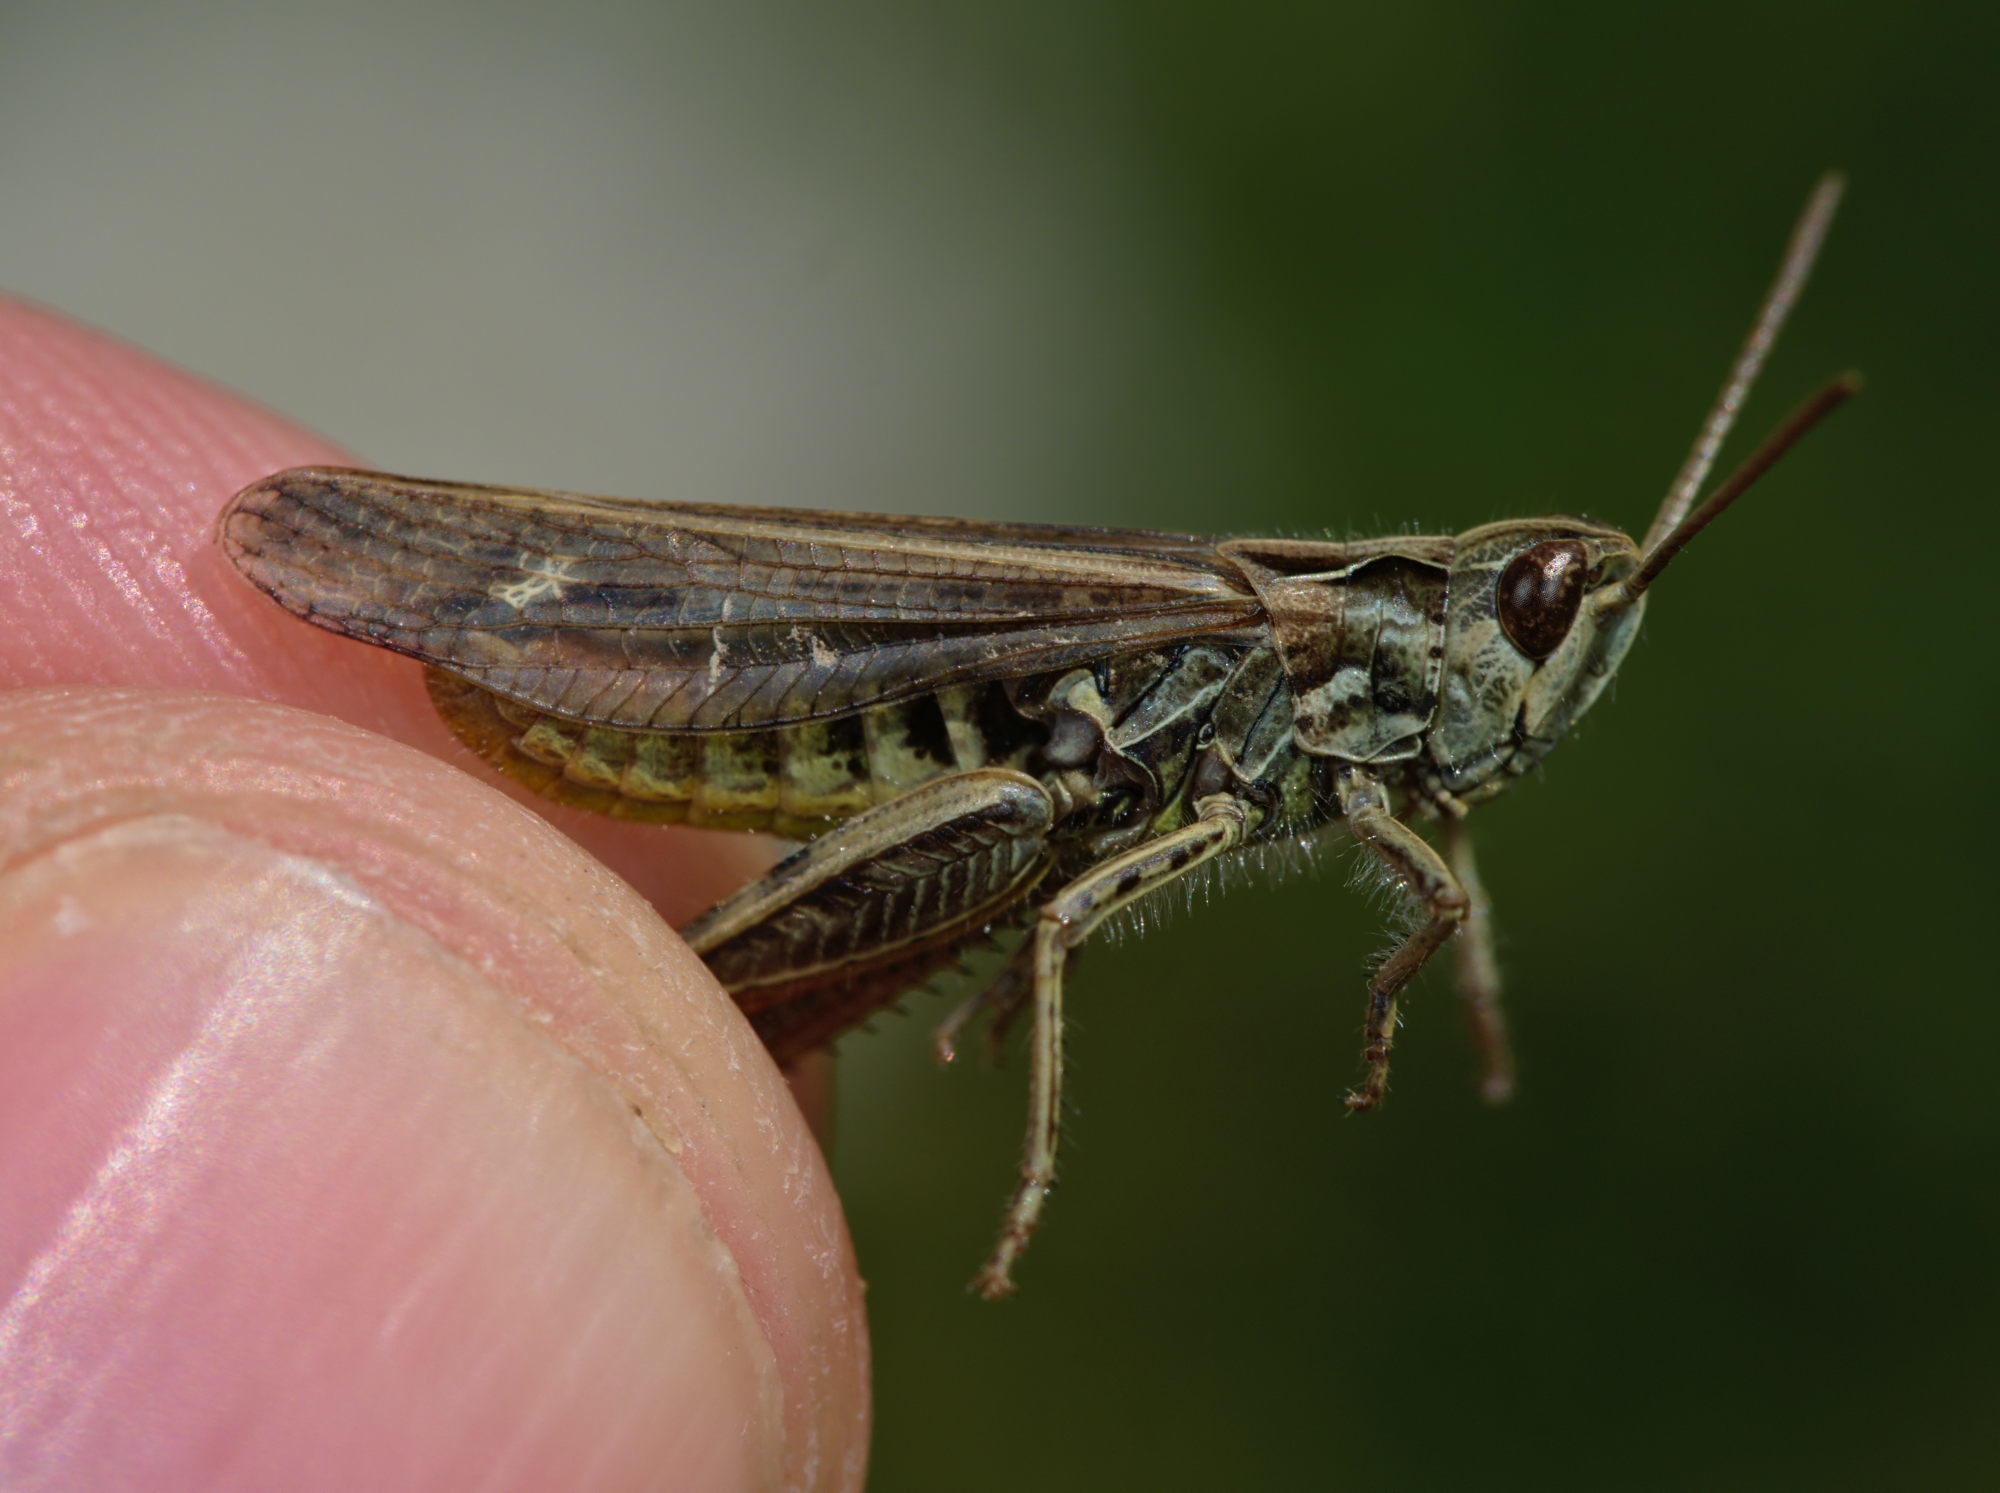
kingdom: Animalia
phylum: Arthropoda
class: Insecta
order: Orthoptera
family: Acrididae
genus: Chorthippus
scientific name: Chorthippus biguttulus
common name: Bow-winged grasshopper
